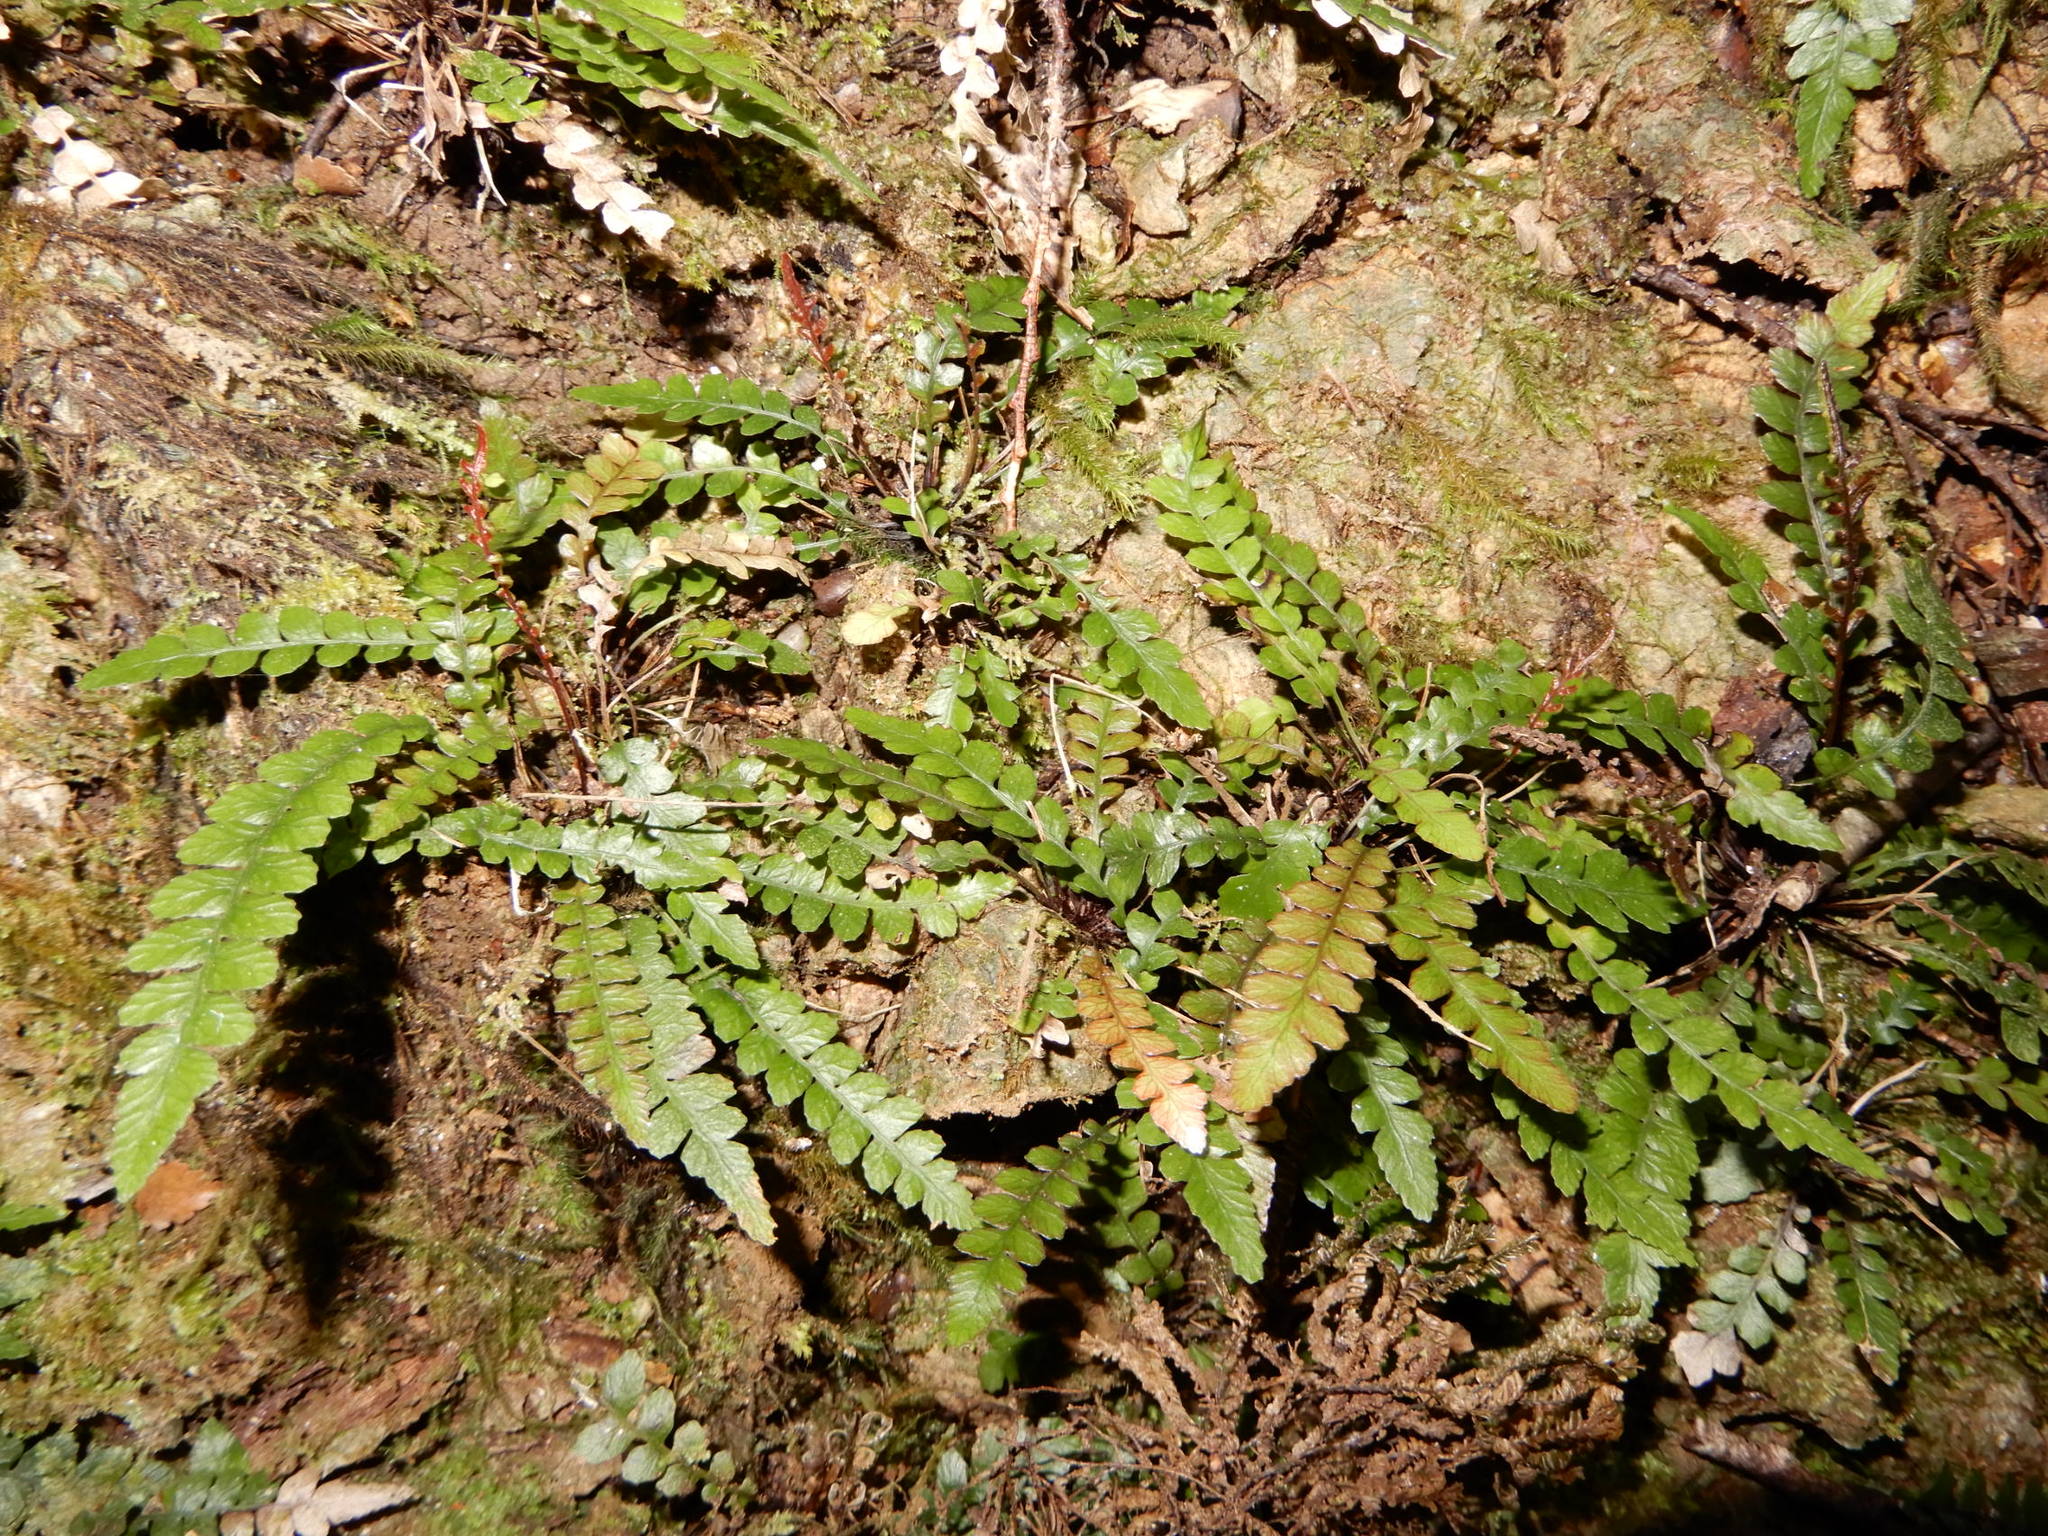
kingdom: Plantae
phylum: Tracheophyta
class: Polypodiopsida
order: Polypodiales
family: Blechnaceae
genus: Austroblechnum
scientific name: Austroblechnum membranaceum
